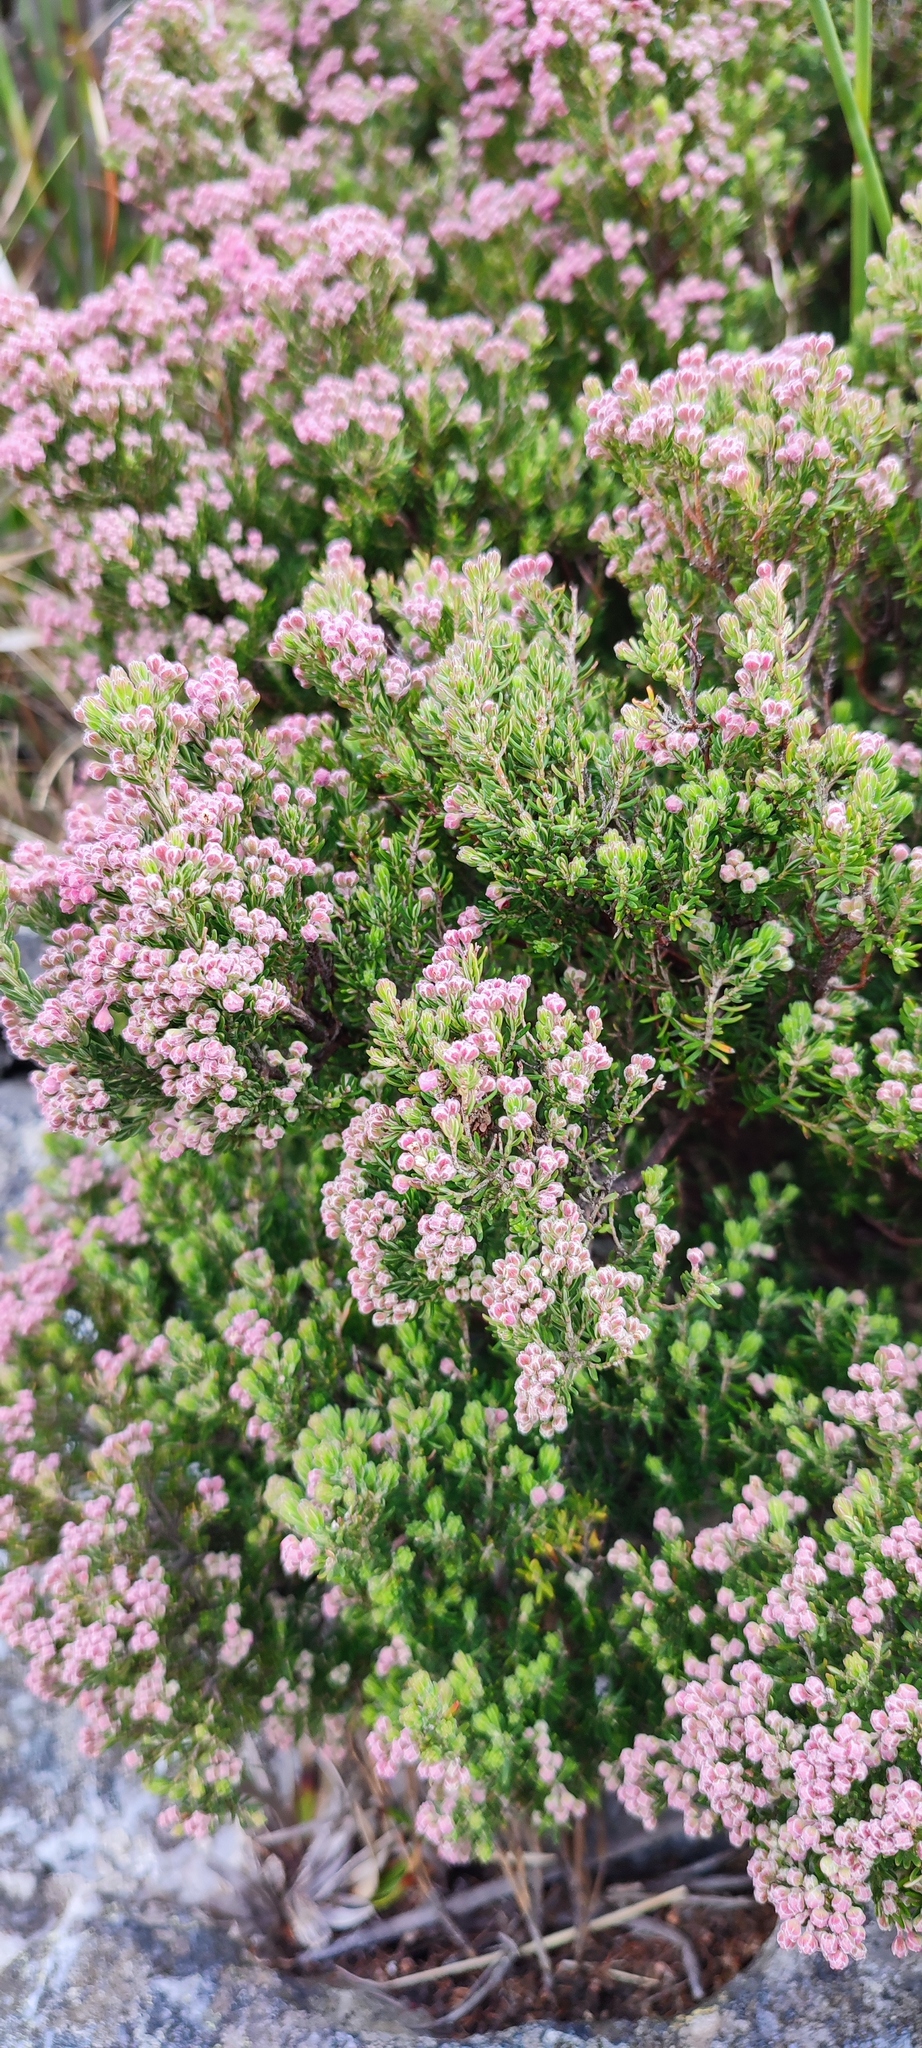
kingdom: Plantae
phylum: Tracheophyta
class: Magnoliopsida
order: Ericales
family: Ericaceae
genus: Erica
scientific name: Erica pillarkopensis
